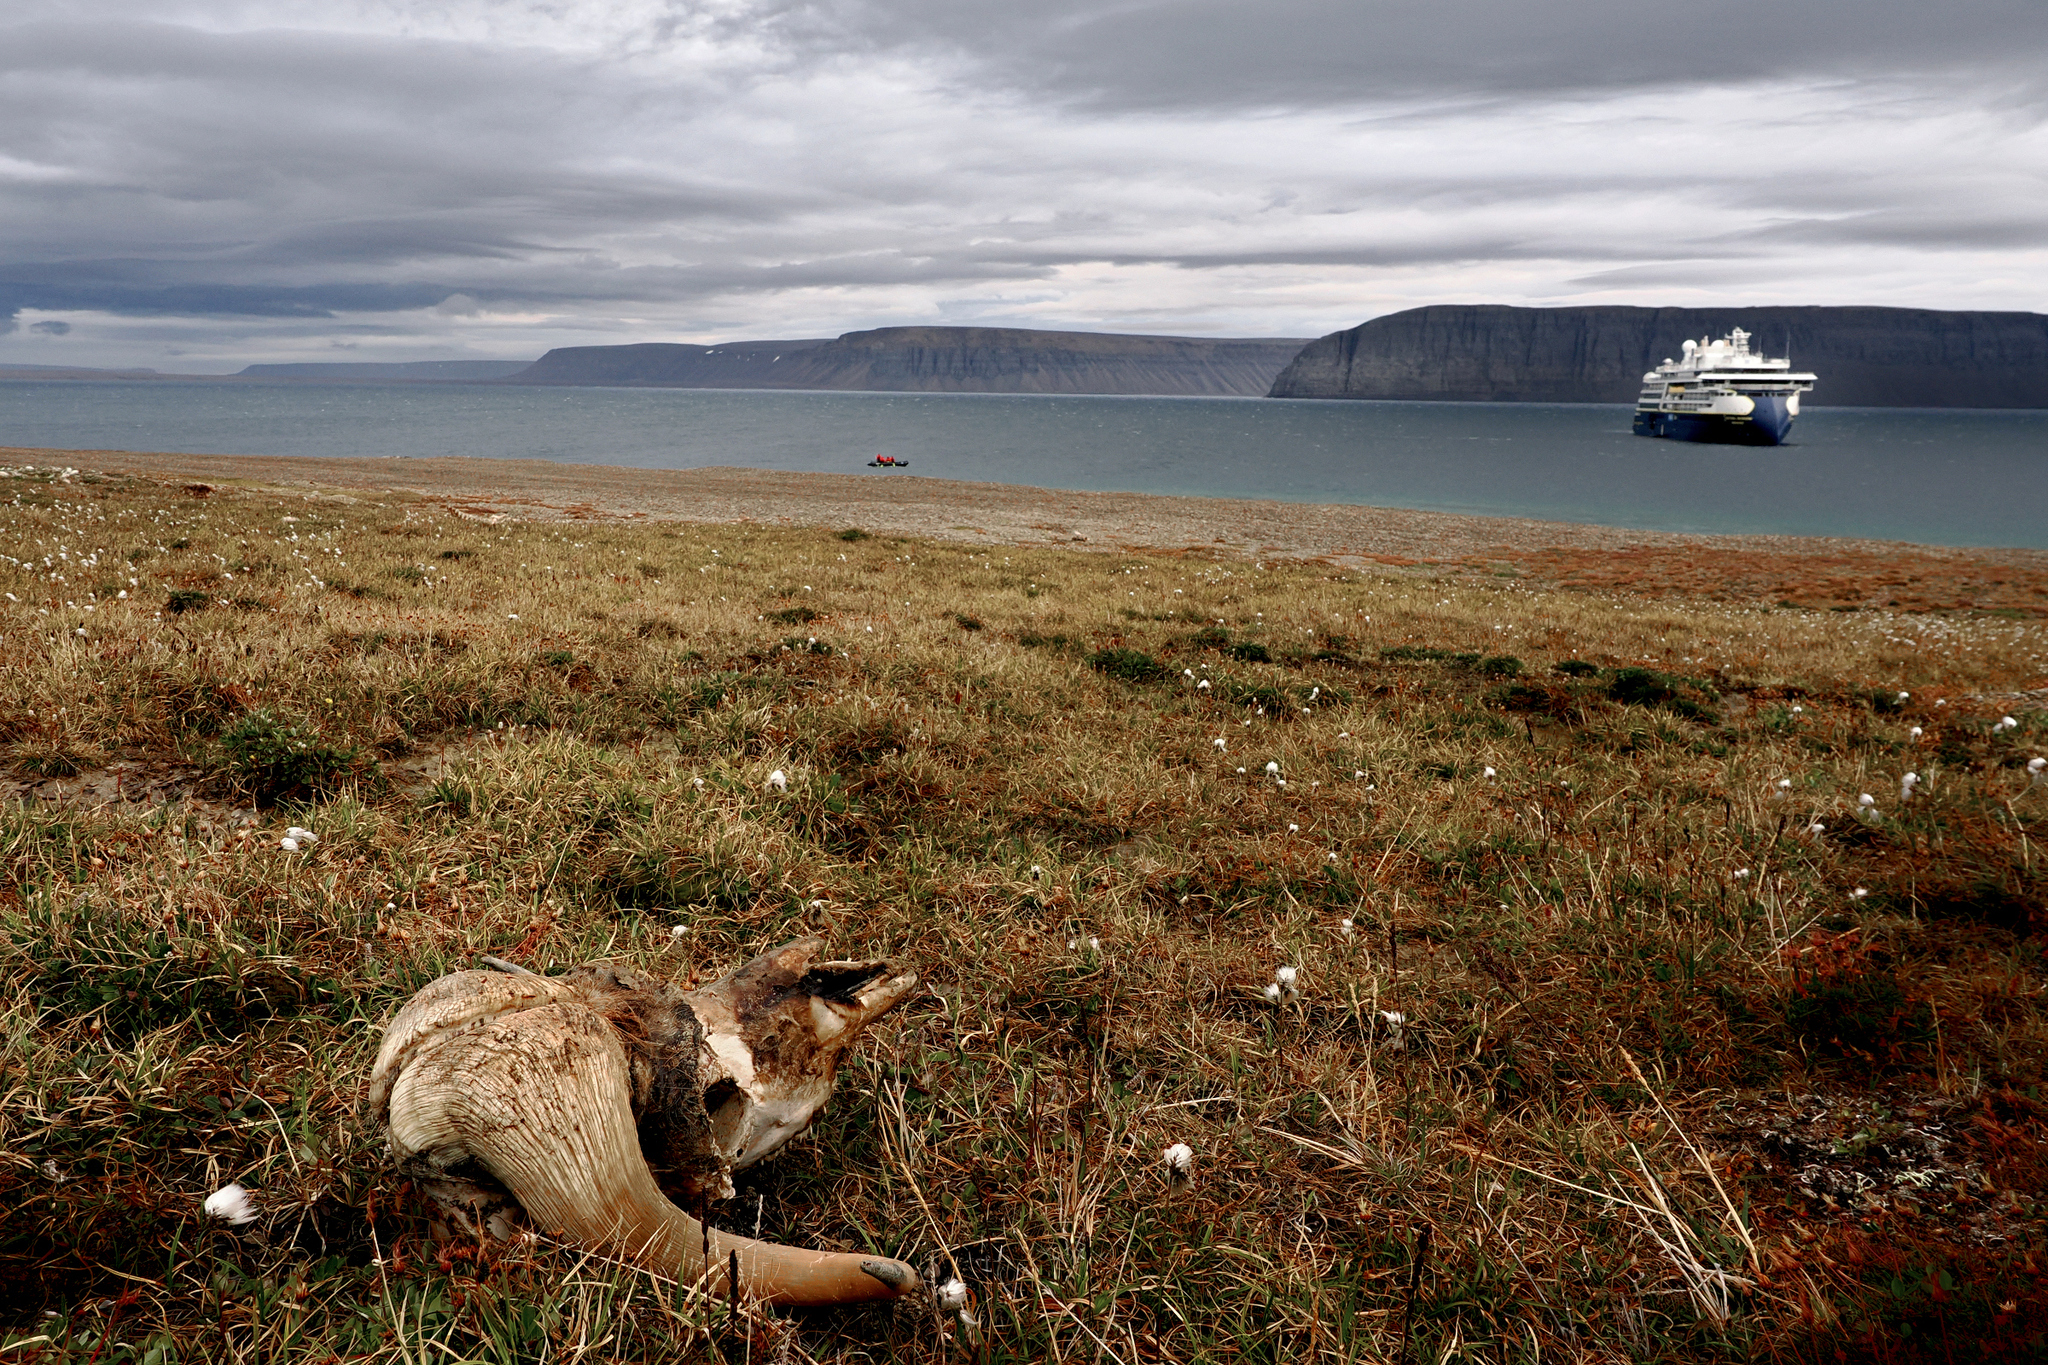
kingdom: Animalia
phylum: Chordata
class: Mammalia
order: Artiodactyla
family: Bovidae
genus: Ovibos
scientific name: Ovibos moschatus
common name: Muskox
